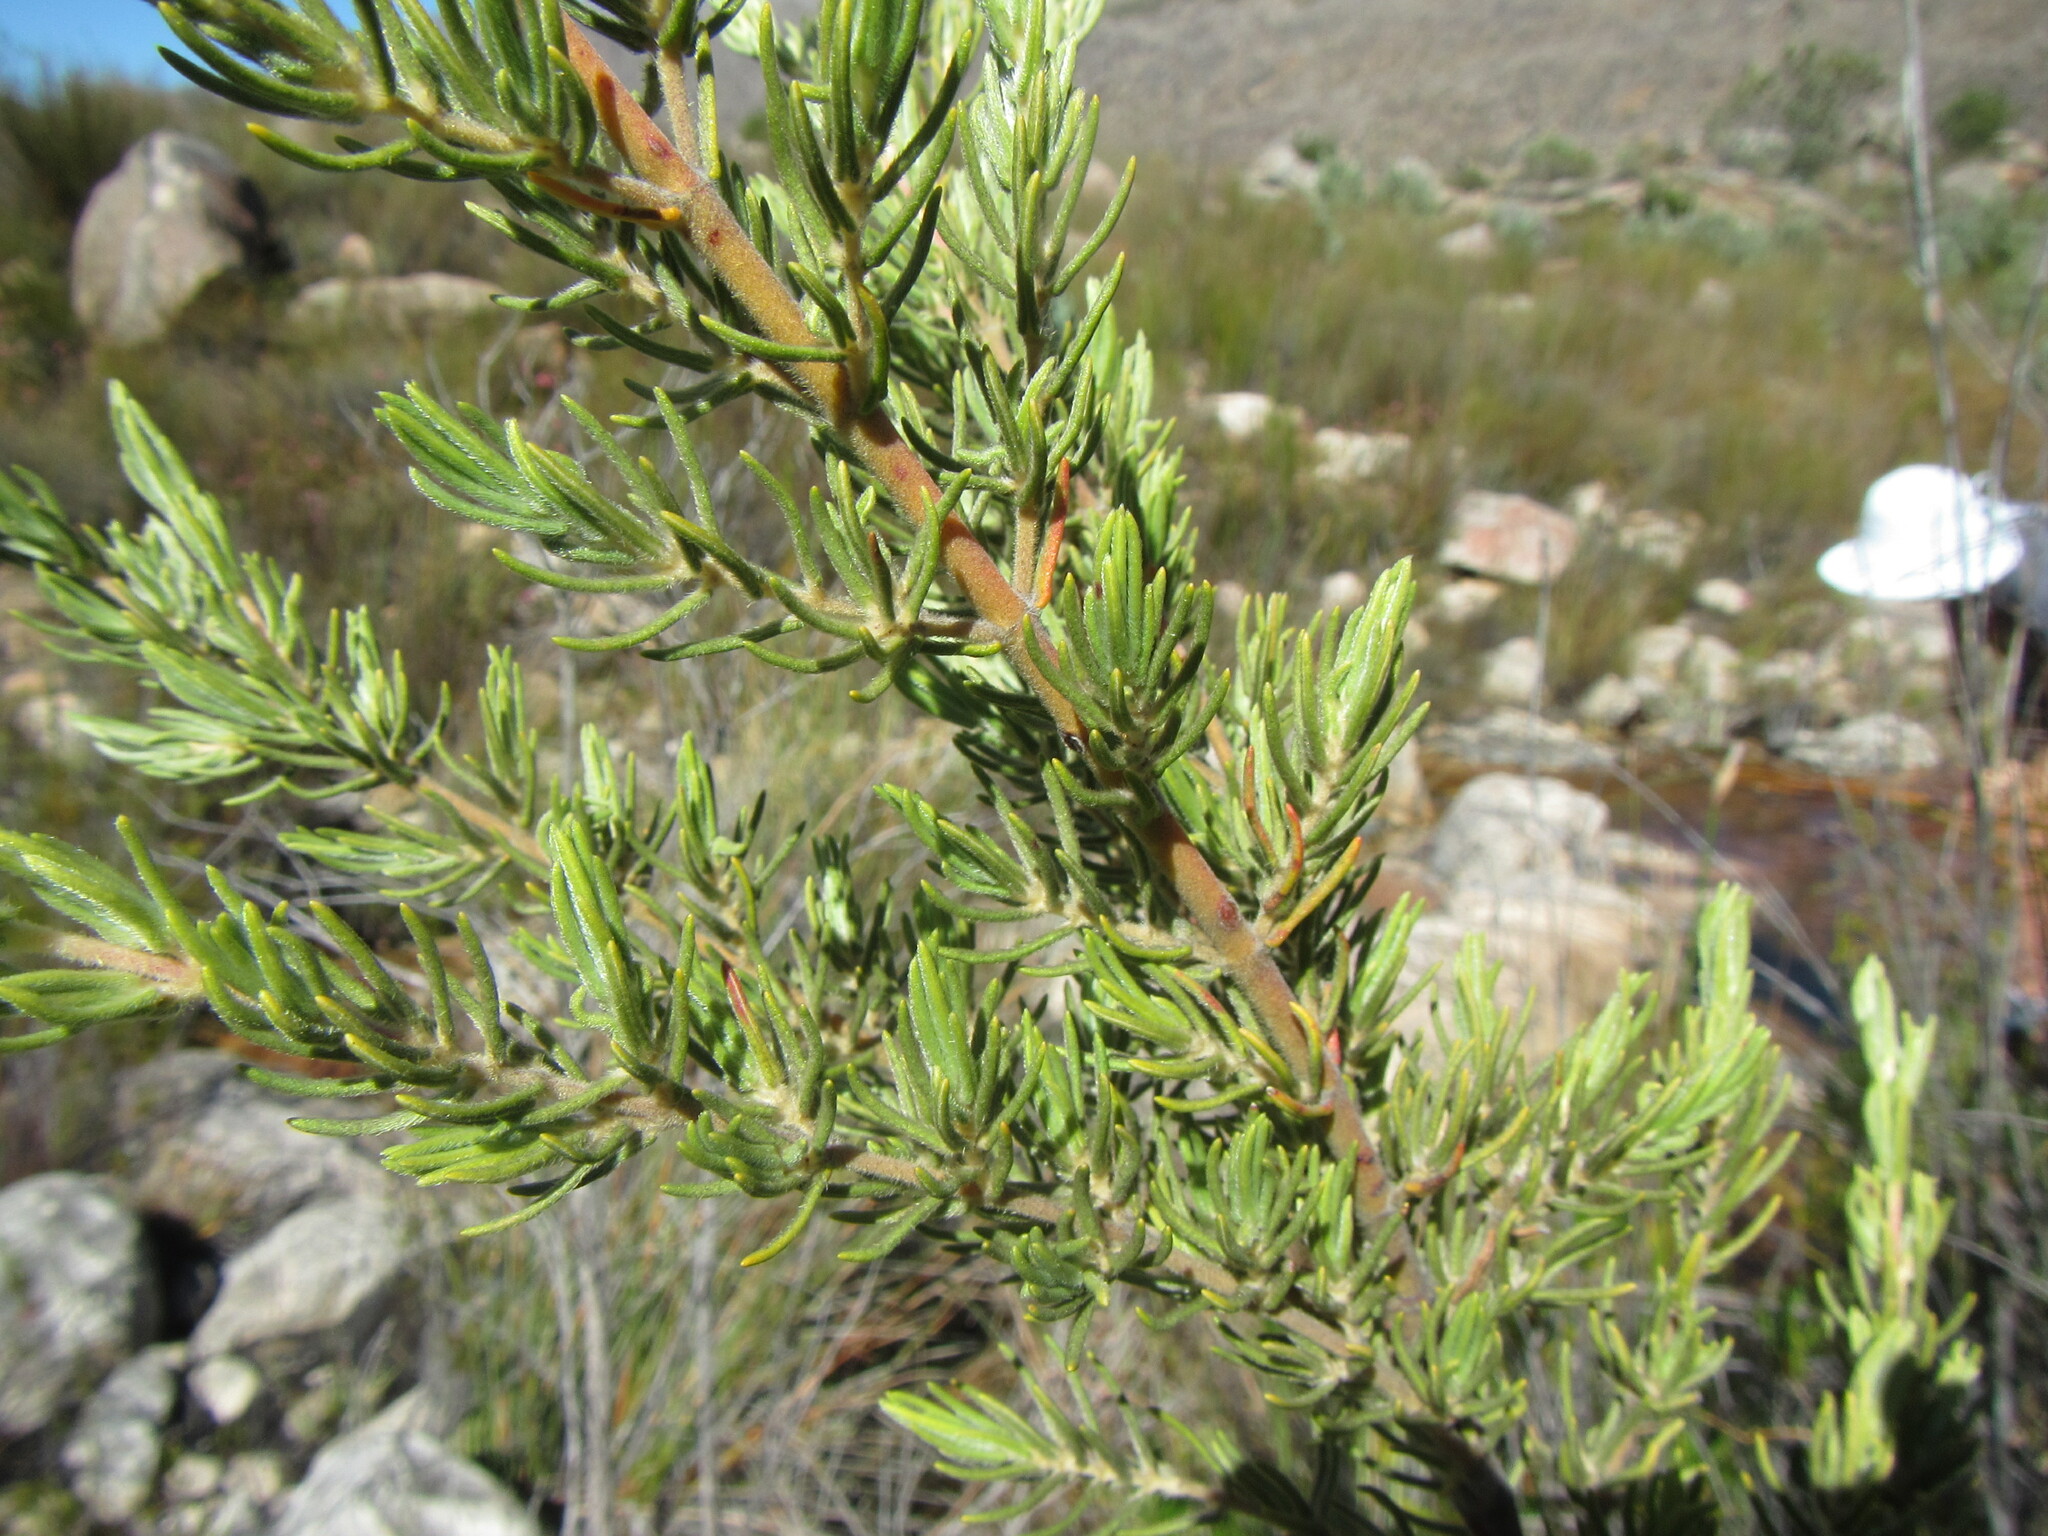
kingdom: Plantae
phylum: Tracheophyta
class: Magnoliopsida
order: Cornales
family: Grubbiaceae
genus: Grubbia
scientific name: Grubbia rosmarinifolia
